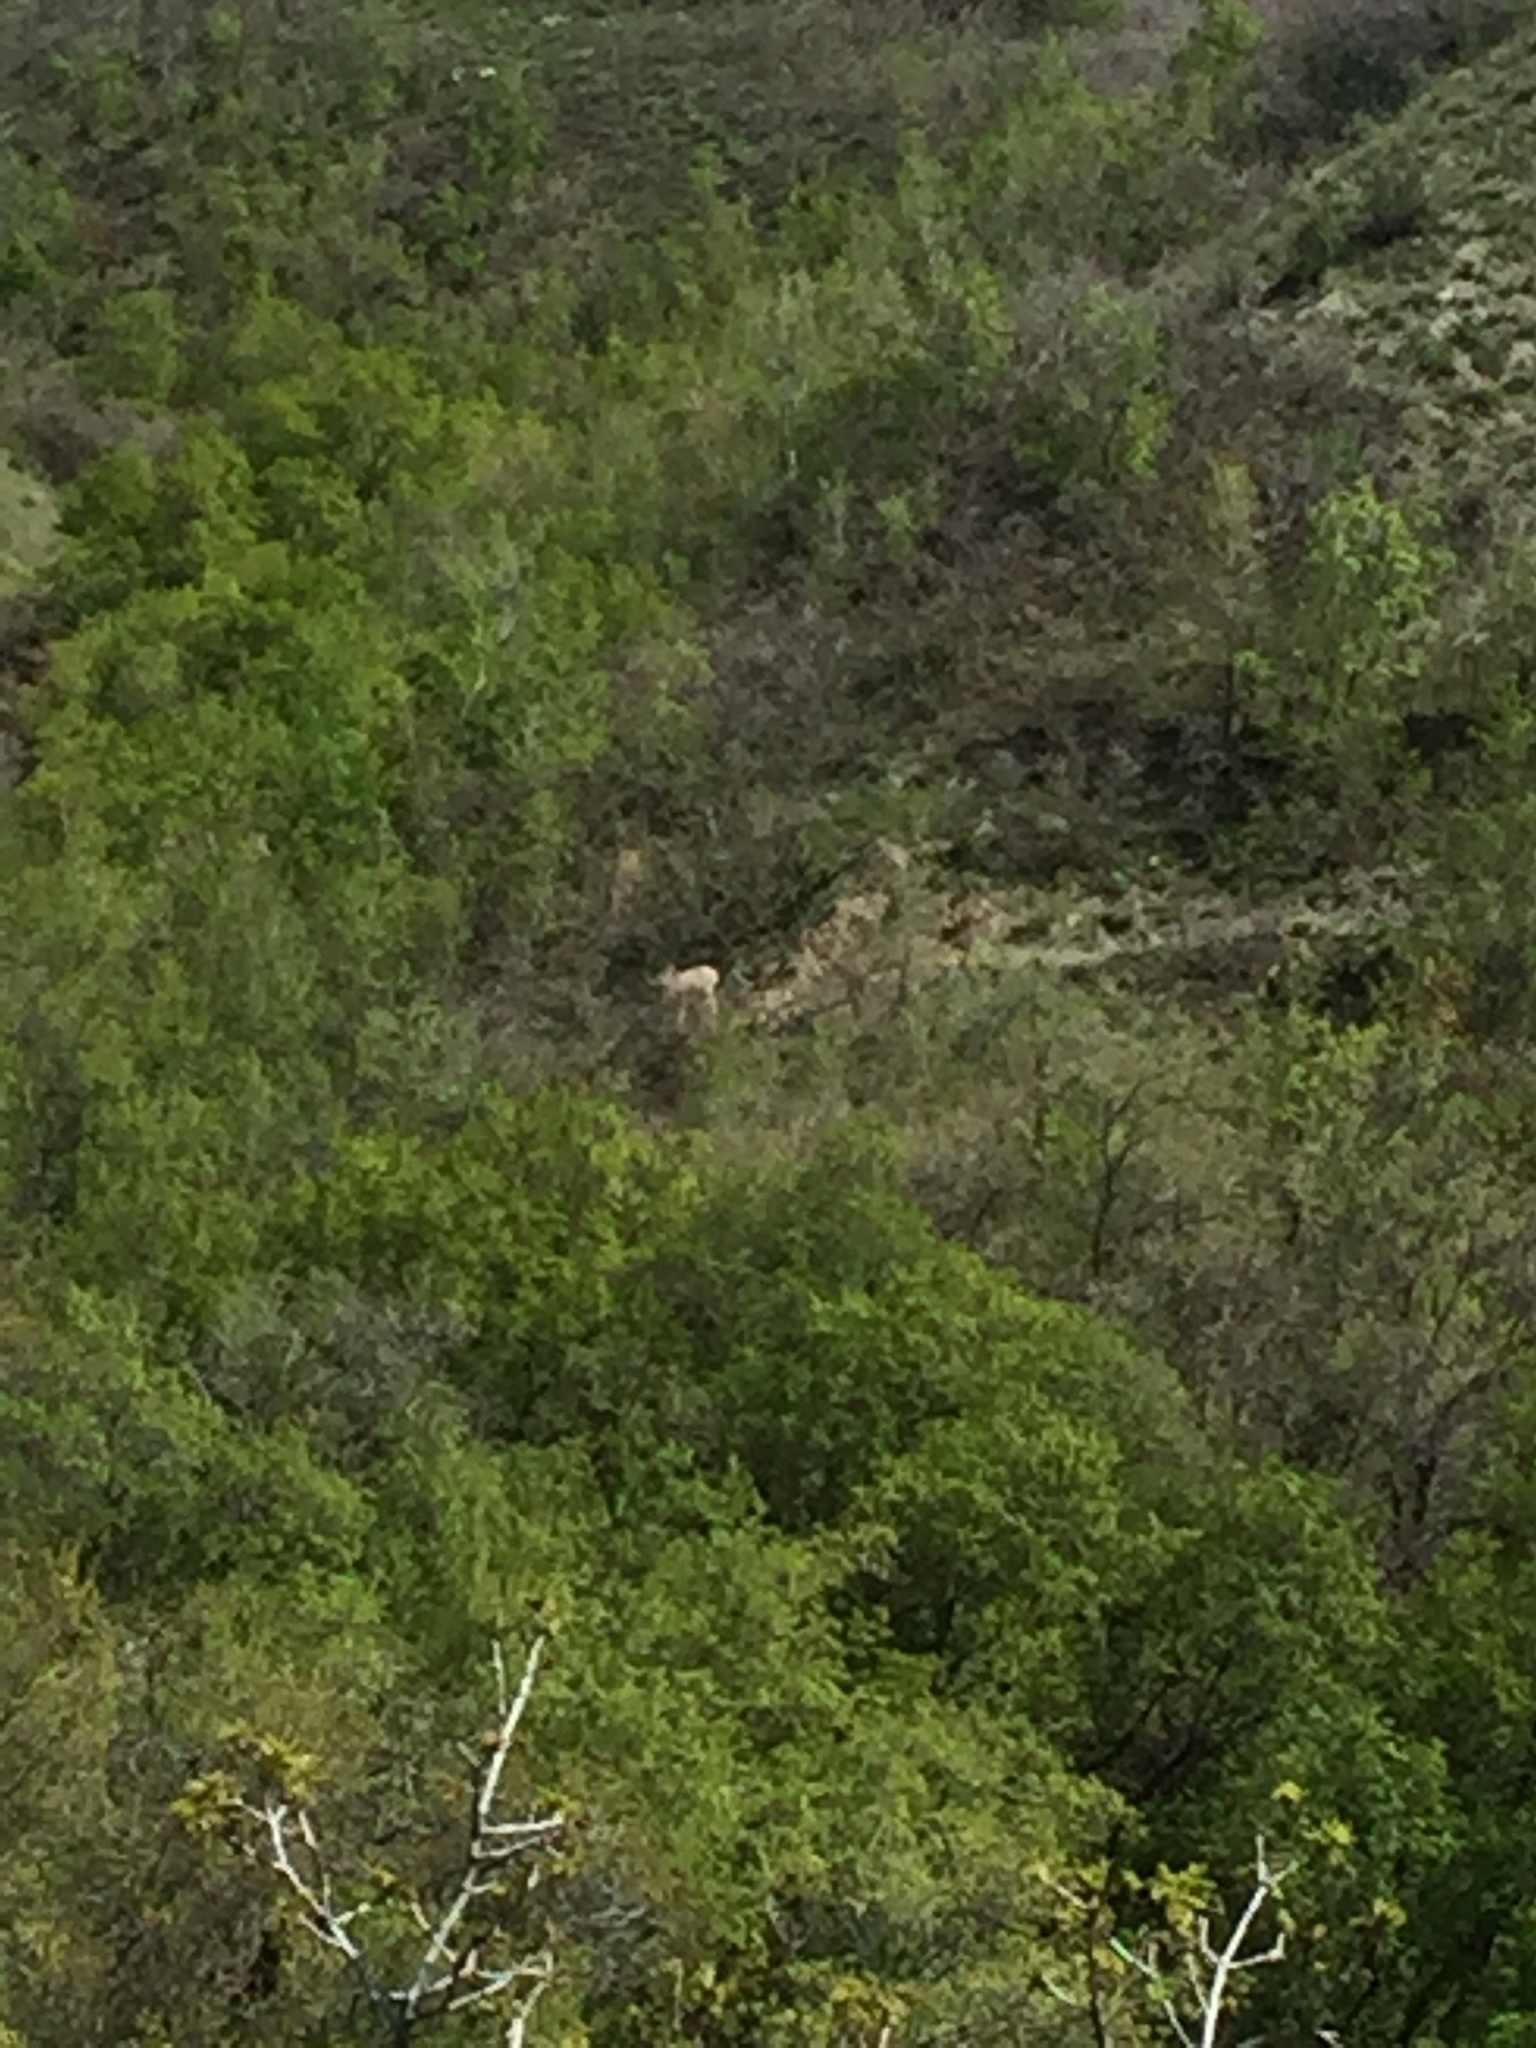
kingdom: Animalia
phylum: Chordata
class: Mammalia
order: Artiodactyla
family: Cervidae
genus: Odocoileus
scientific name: Odocoileus hemionus
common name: Mule deer
